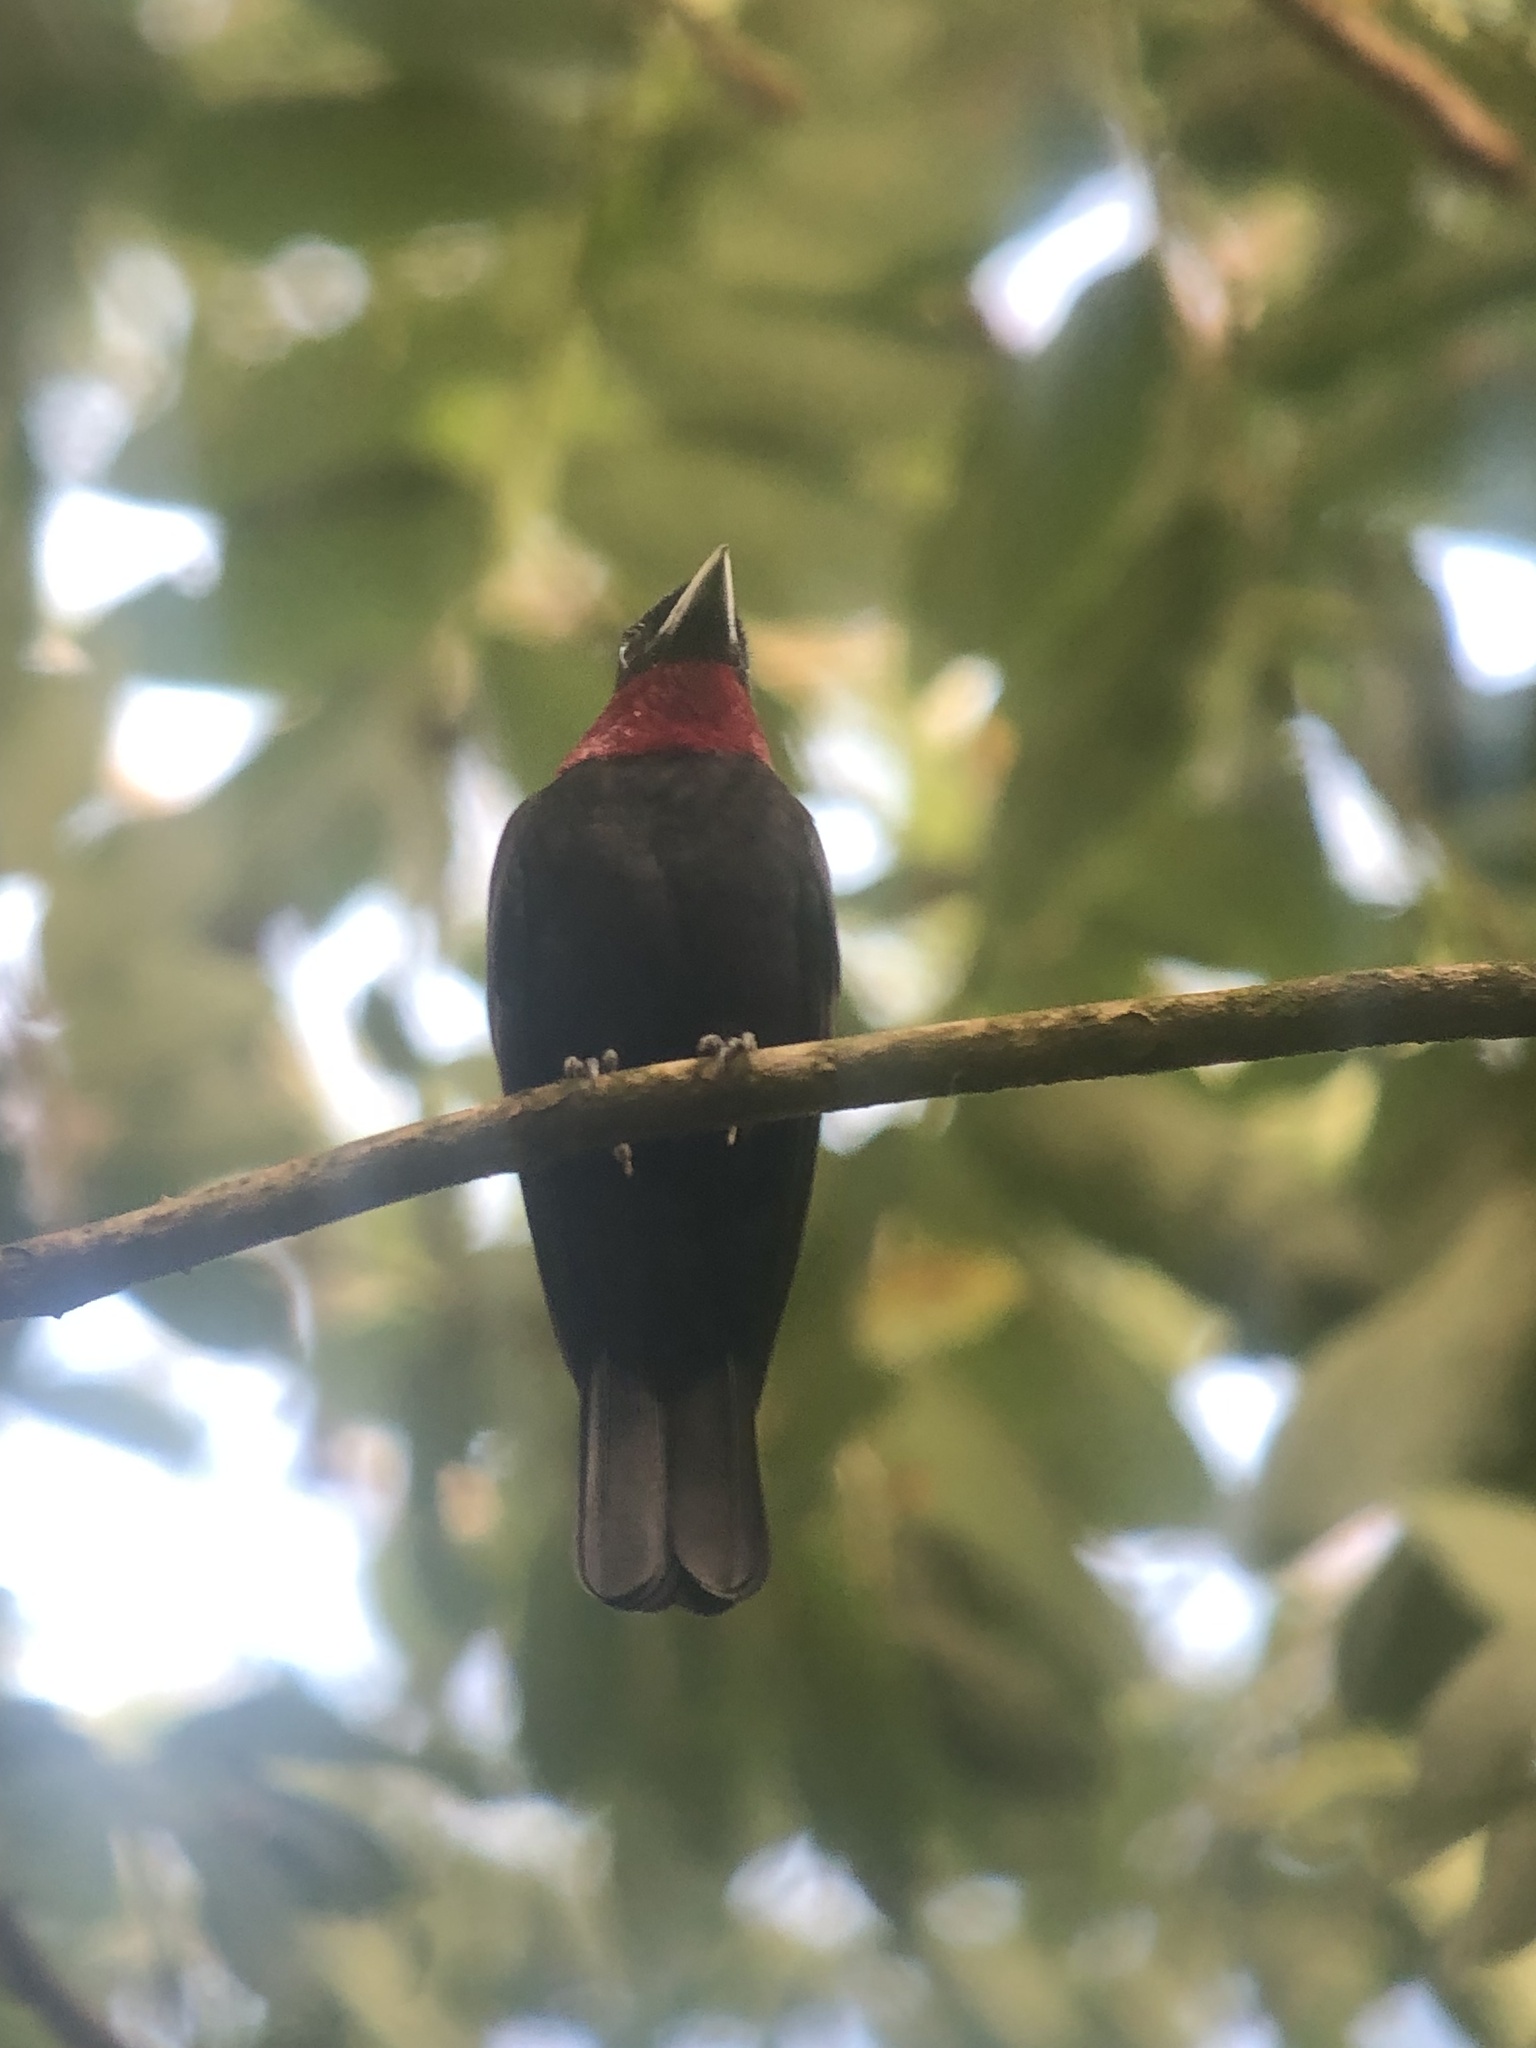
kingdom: Animalia
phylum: Chordata
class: Aves
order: Passeriformes
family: Cotingidae
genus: Querula
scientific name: Querula purpurata
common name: Purple-throated fruitcrow
